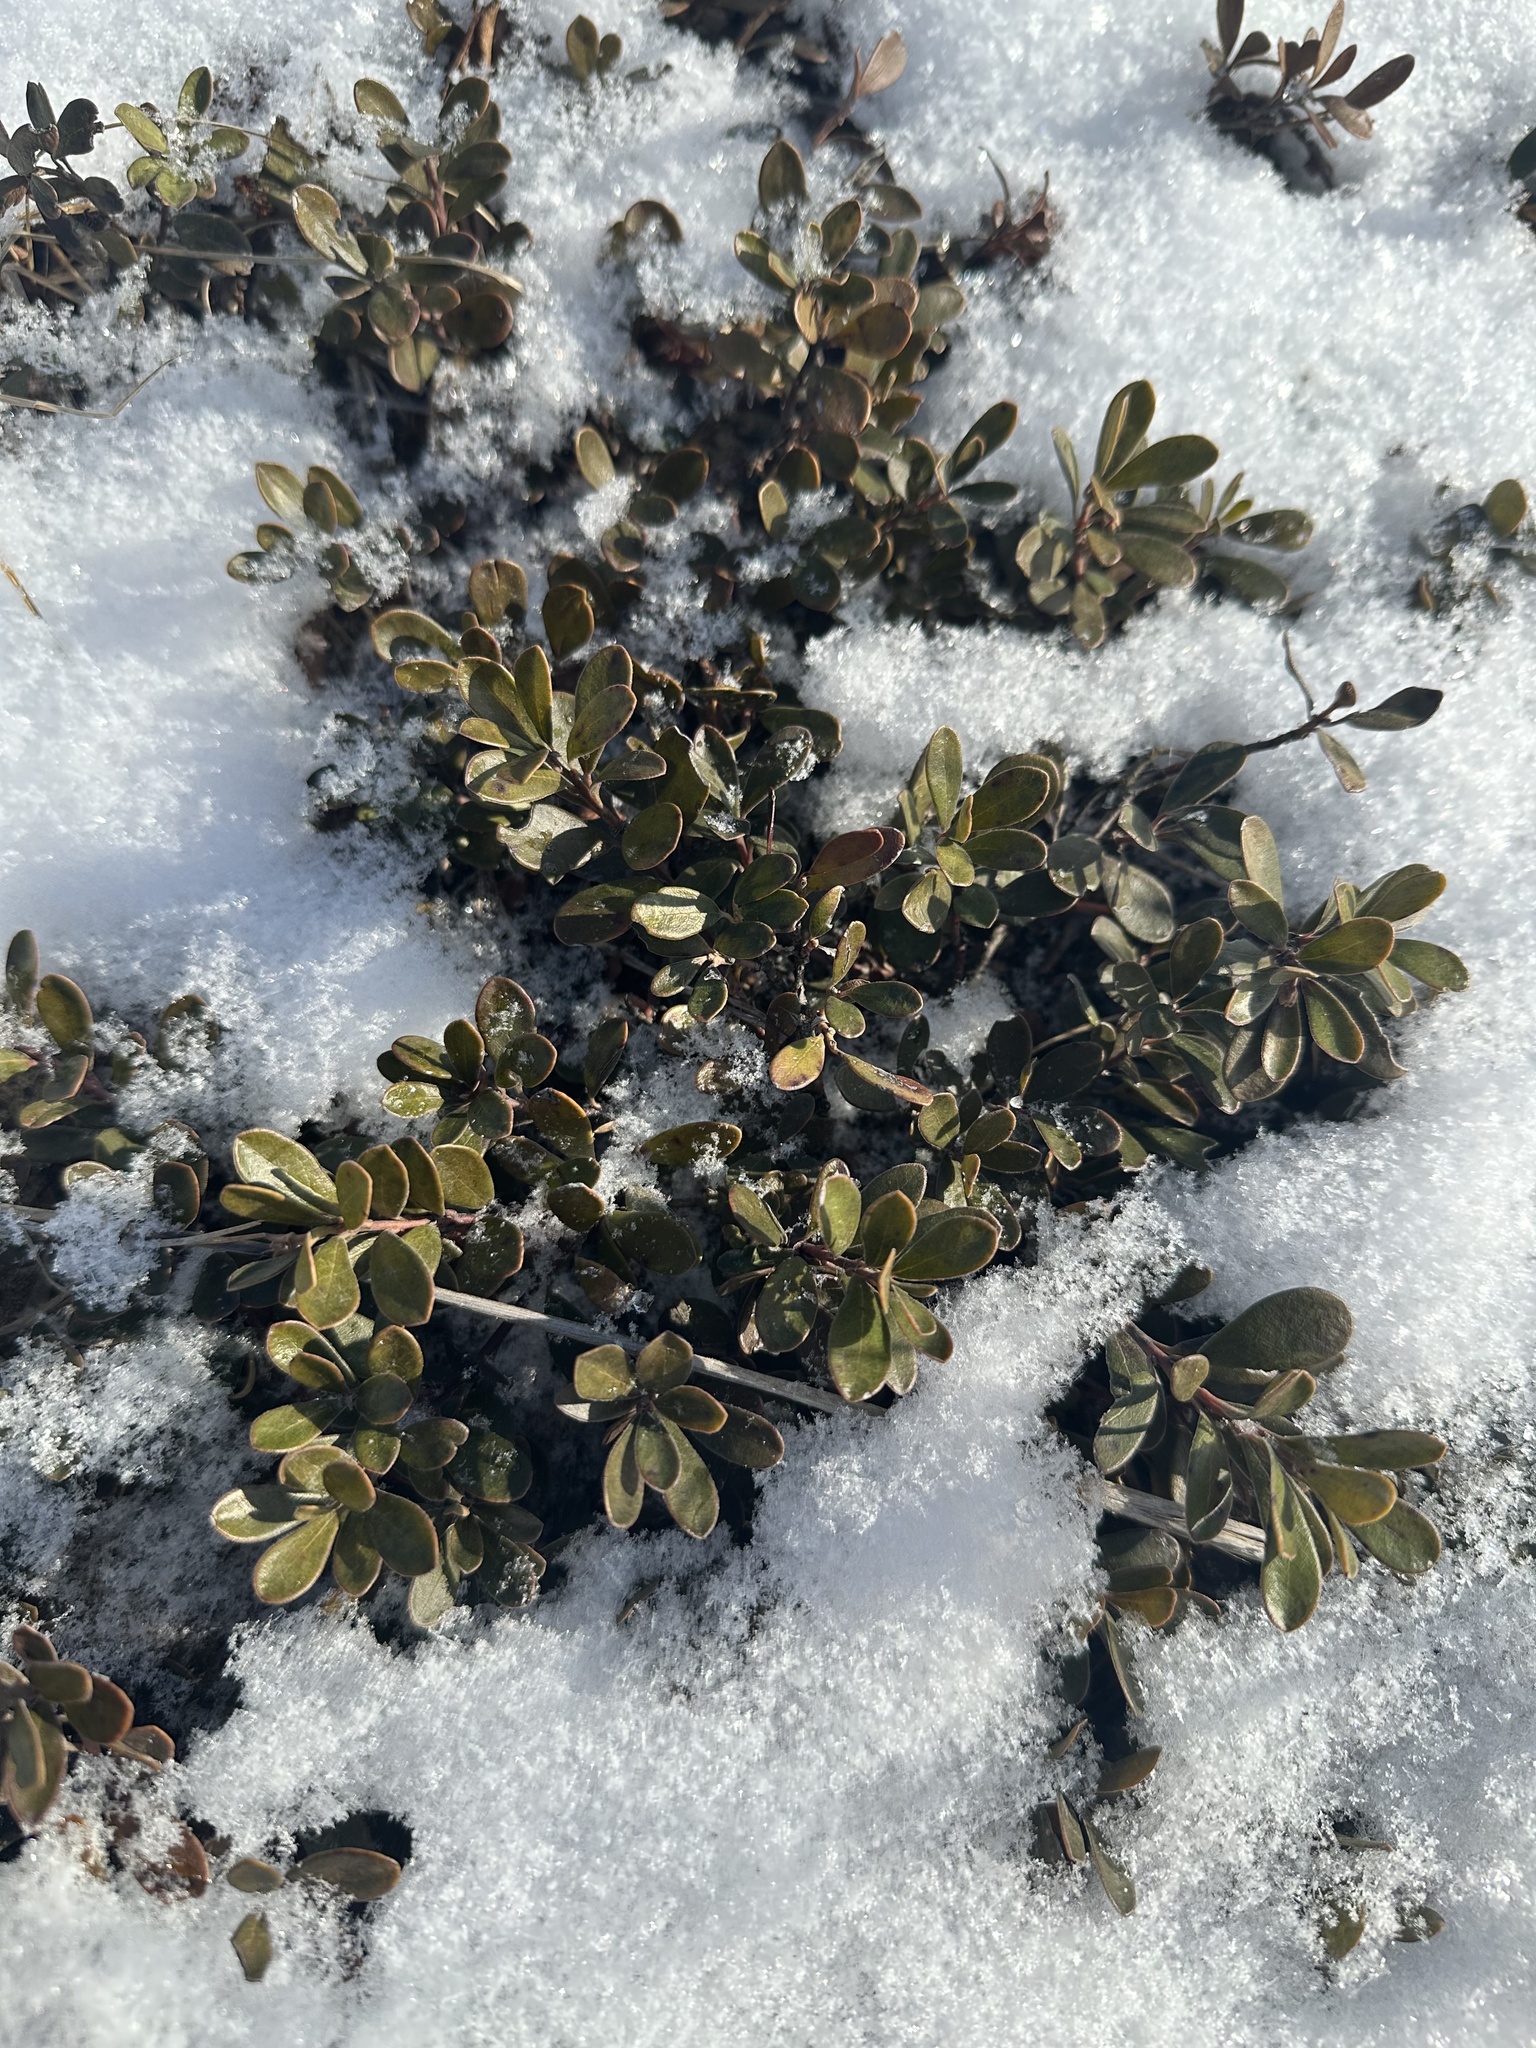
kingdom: Plantae
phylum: Tracheophyta
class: Magnoliopsida
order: Ericales
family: Ericaceae
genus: Arctostaphylos
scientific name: Arctostaphylos uva-ursi
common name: Bearberry
